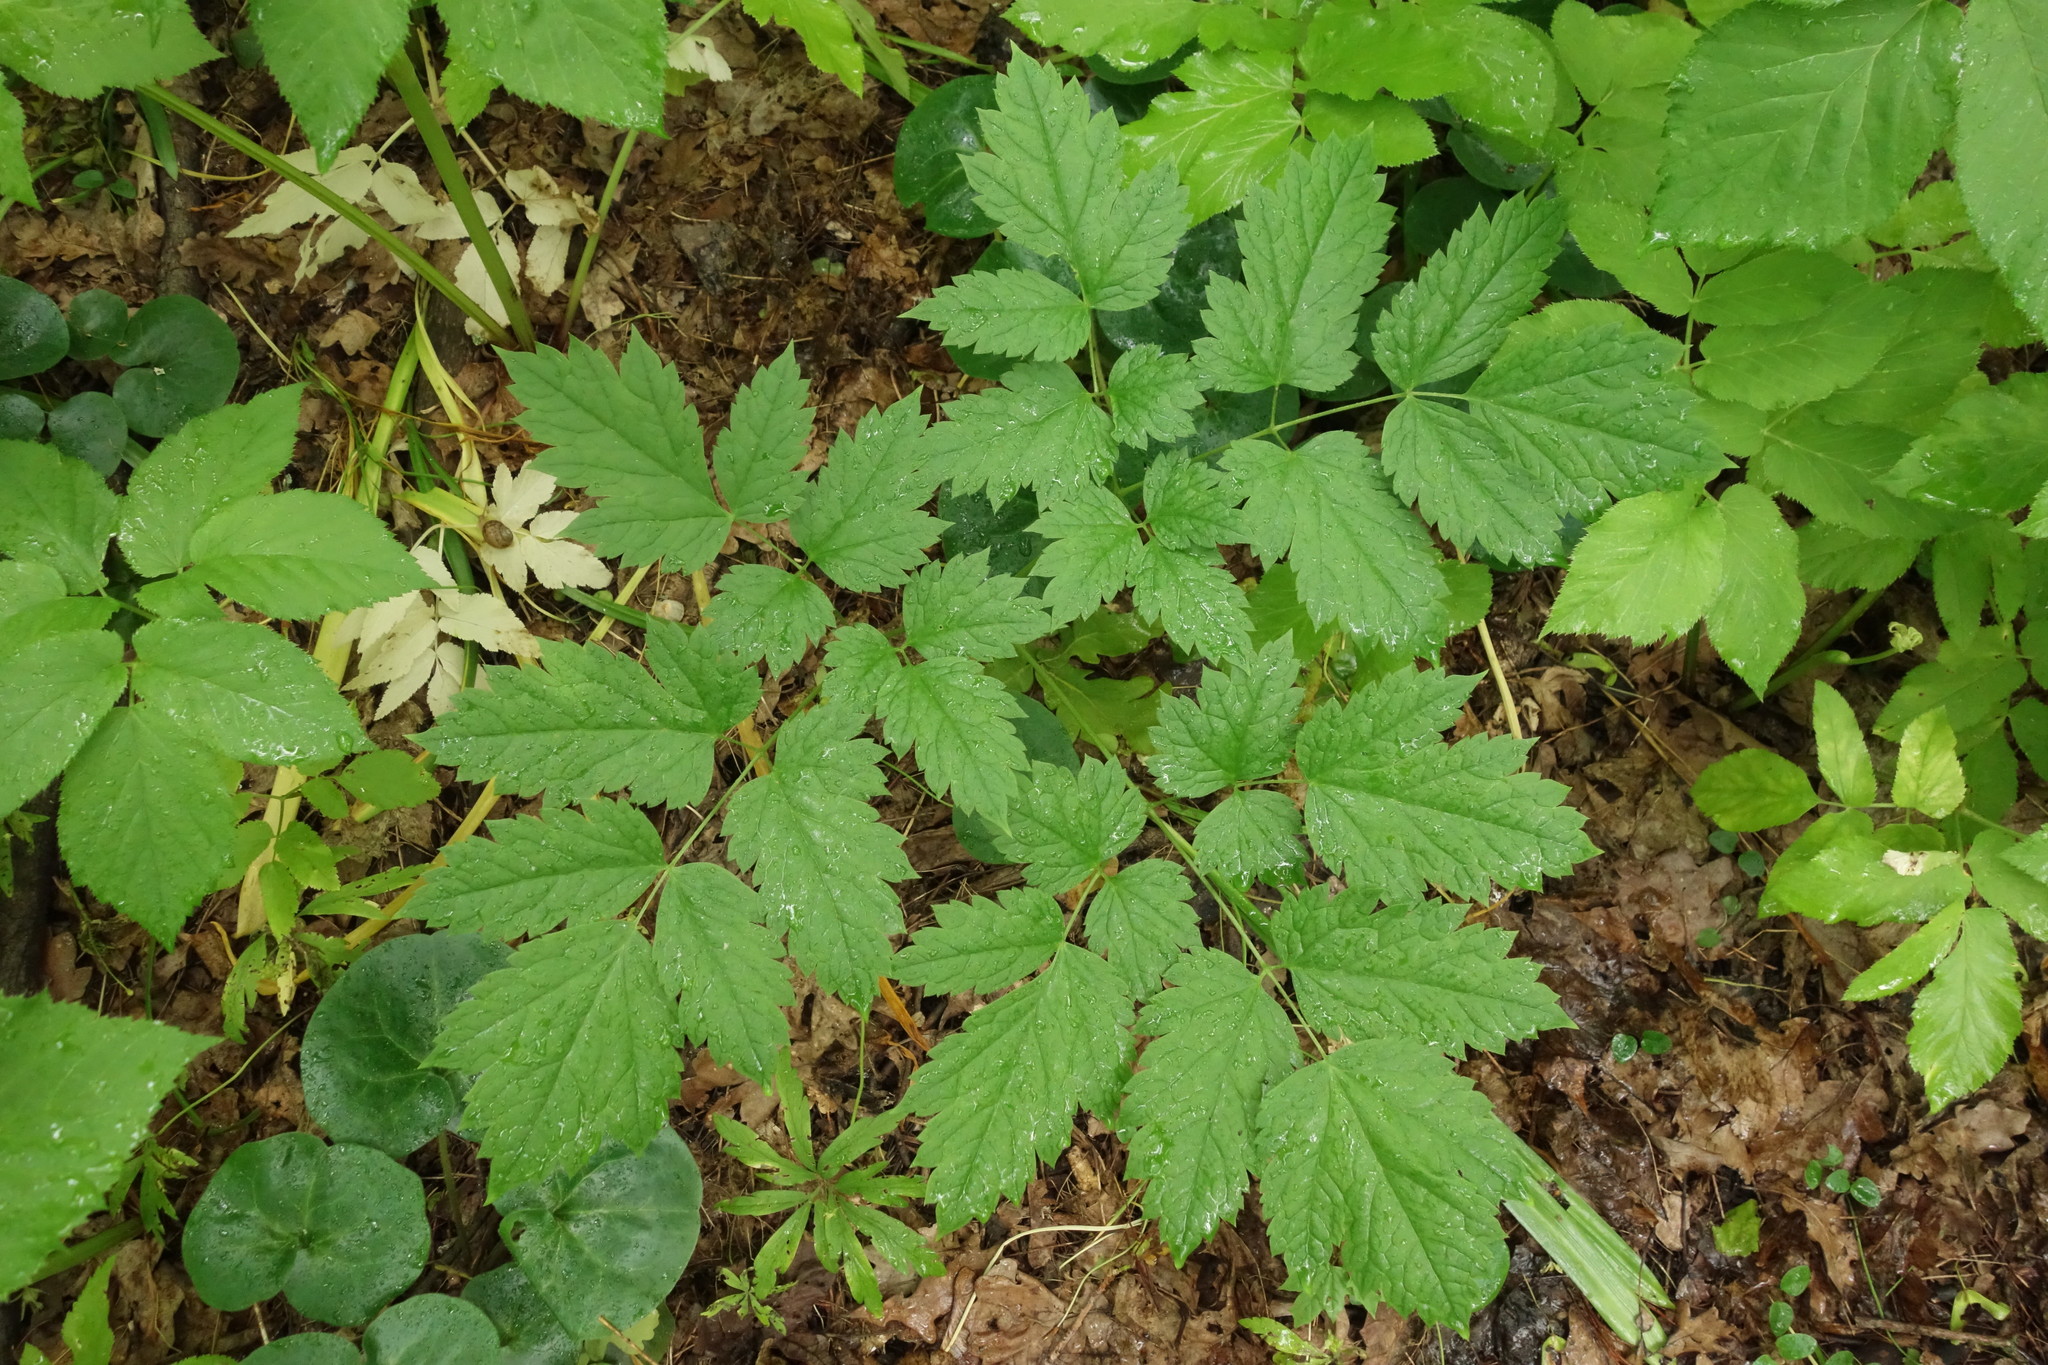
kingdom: Plantae
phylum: Tracheophyta
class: Magnoliopsida
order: Ranunculales
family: Ranunculaceae
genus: Actaea
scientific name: Actaea spicata
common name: Baneberry
